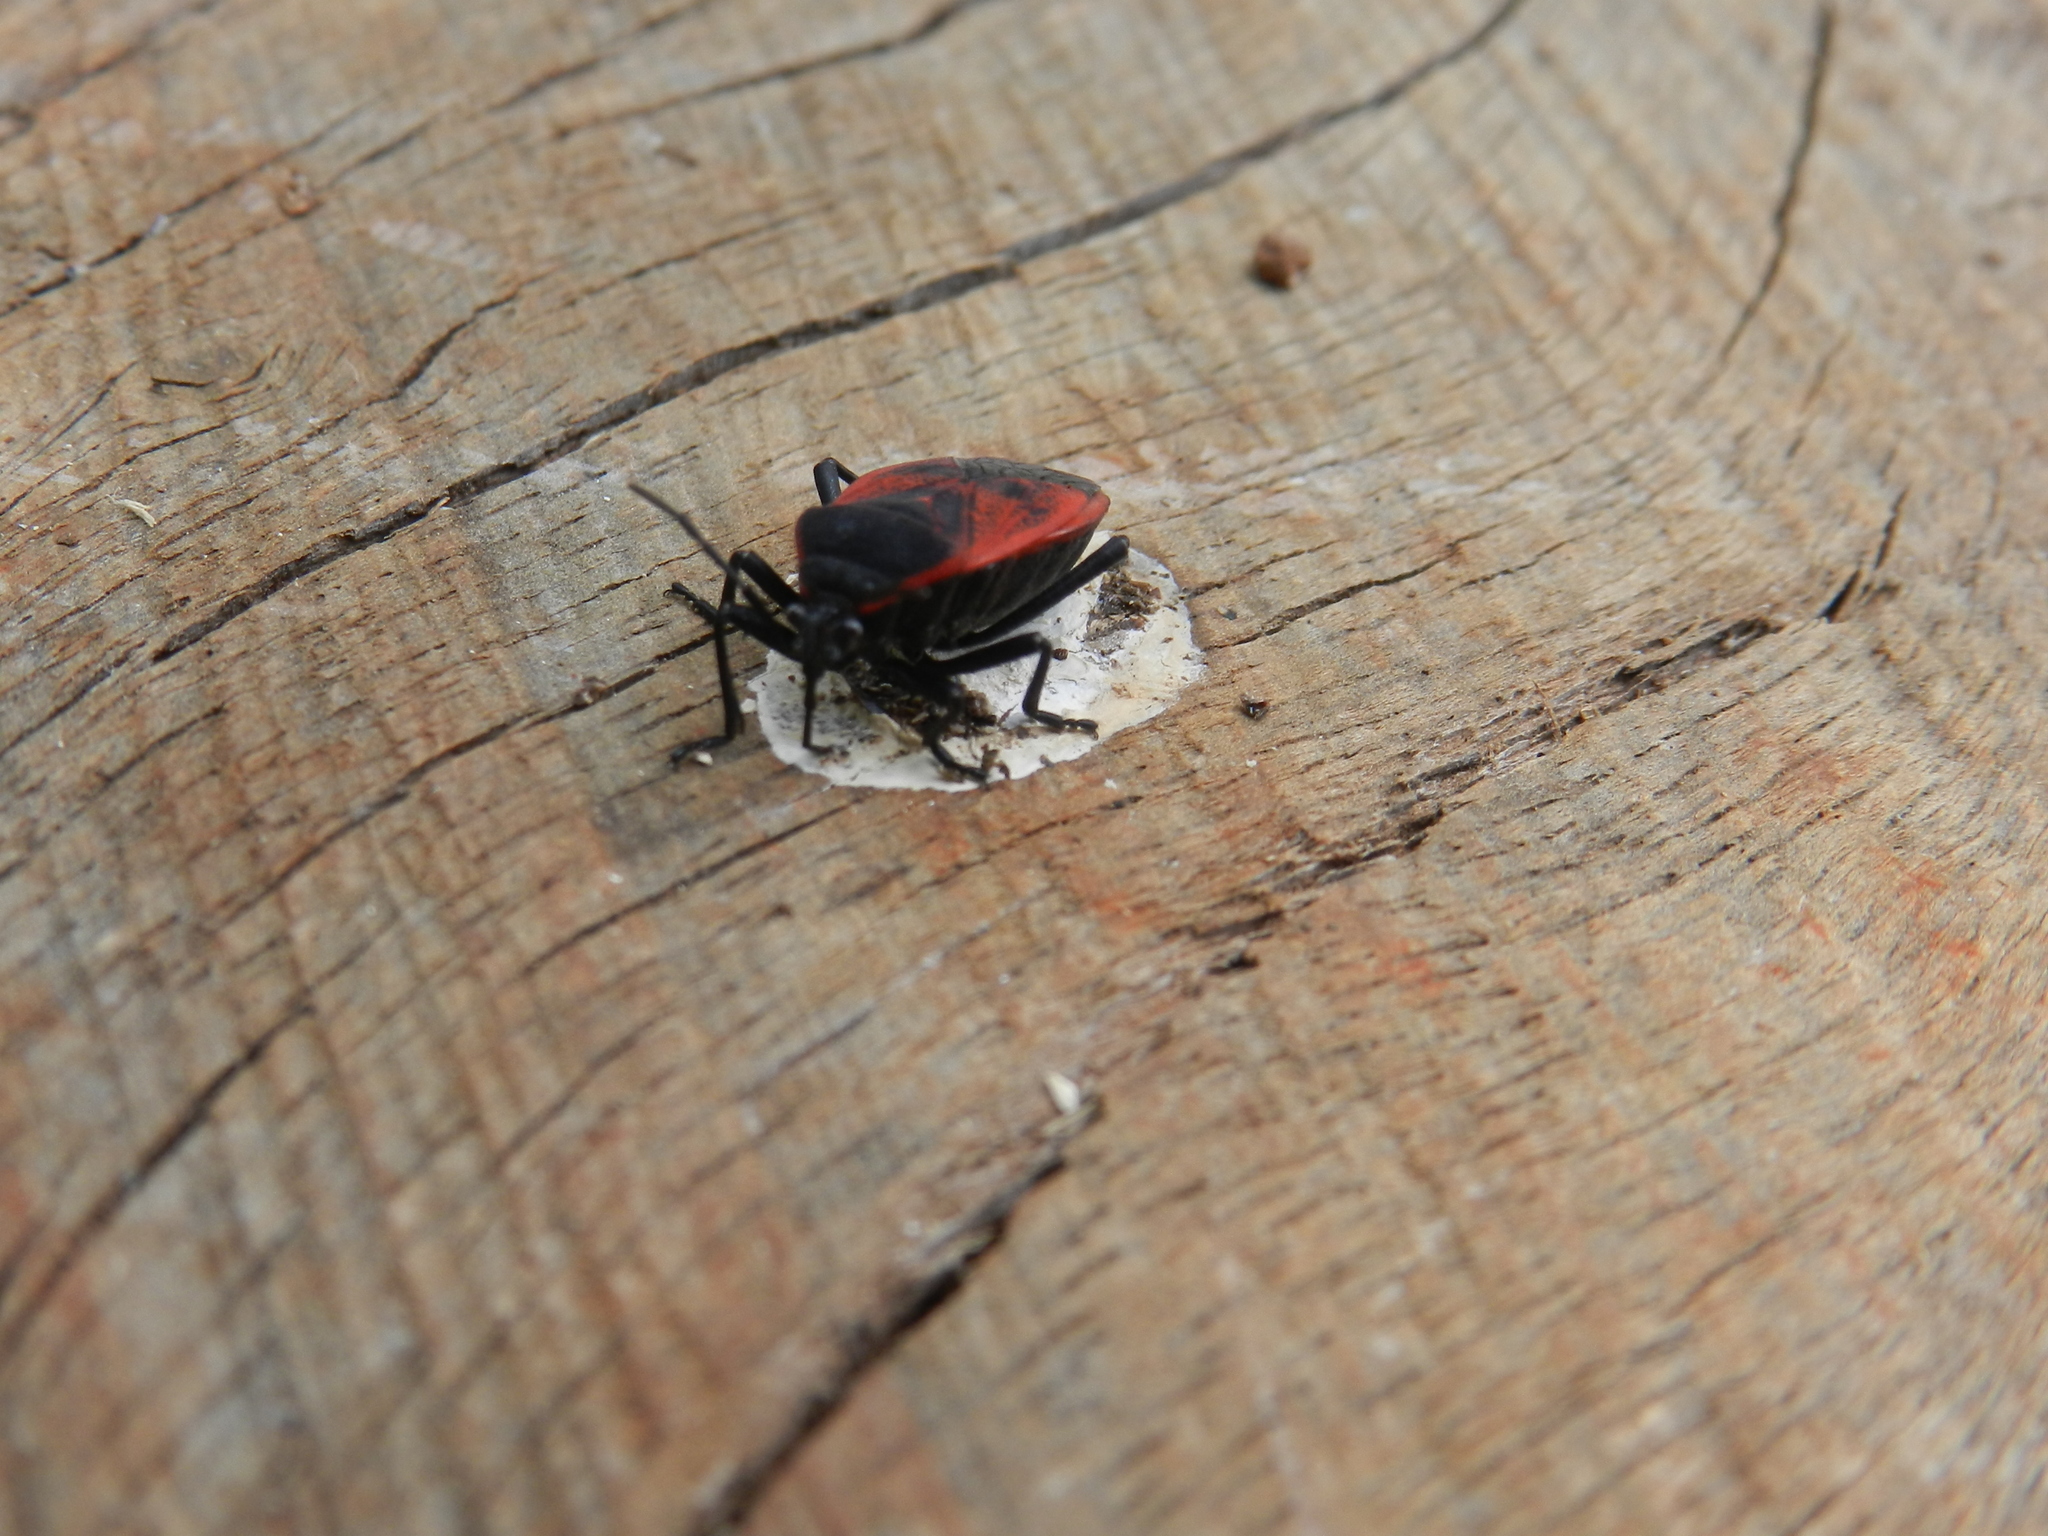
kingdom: Animalia
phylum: Arthropoda
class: Insecta
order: Hemiptera
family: Largidae
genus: Largus
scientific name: Largus rufipennis
